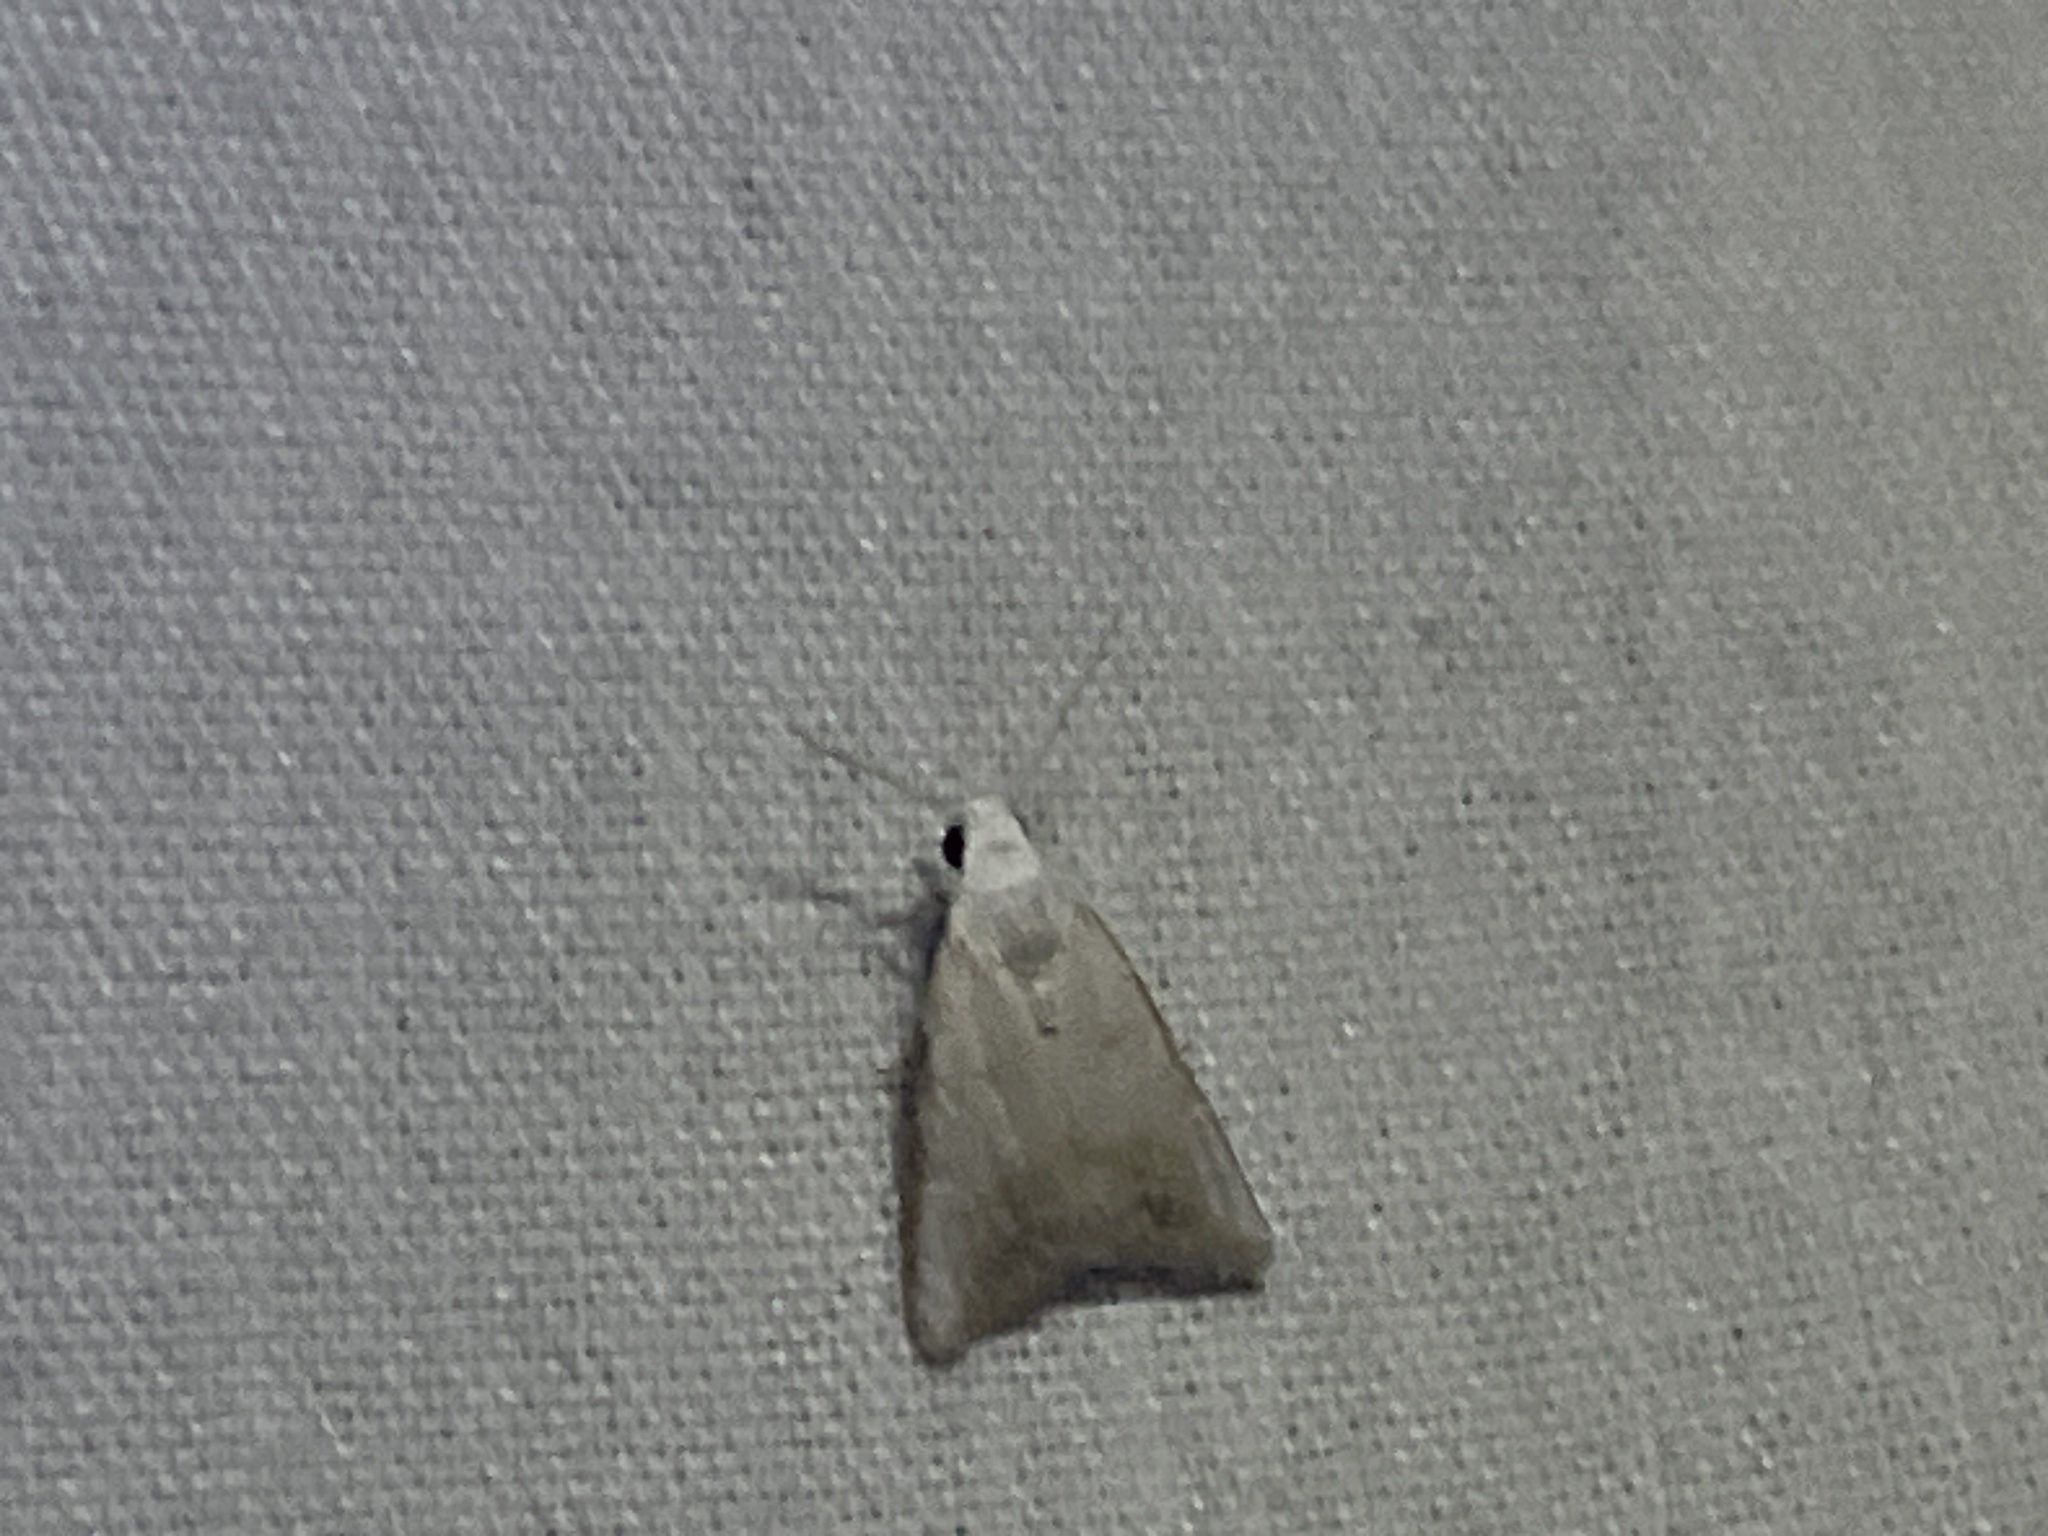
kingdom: Animalia
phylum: Arthropoda
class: Insecta
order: Lepidoptera
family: Nolidae
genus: Nola
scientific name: Nola cereella
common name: Sorghum webworm moth
